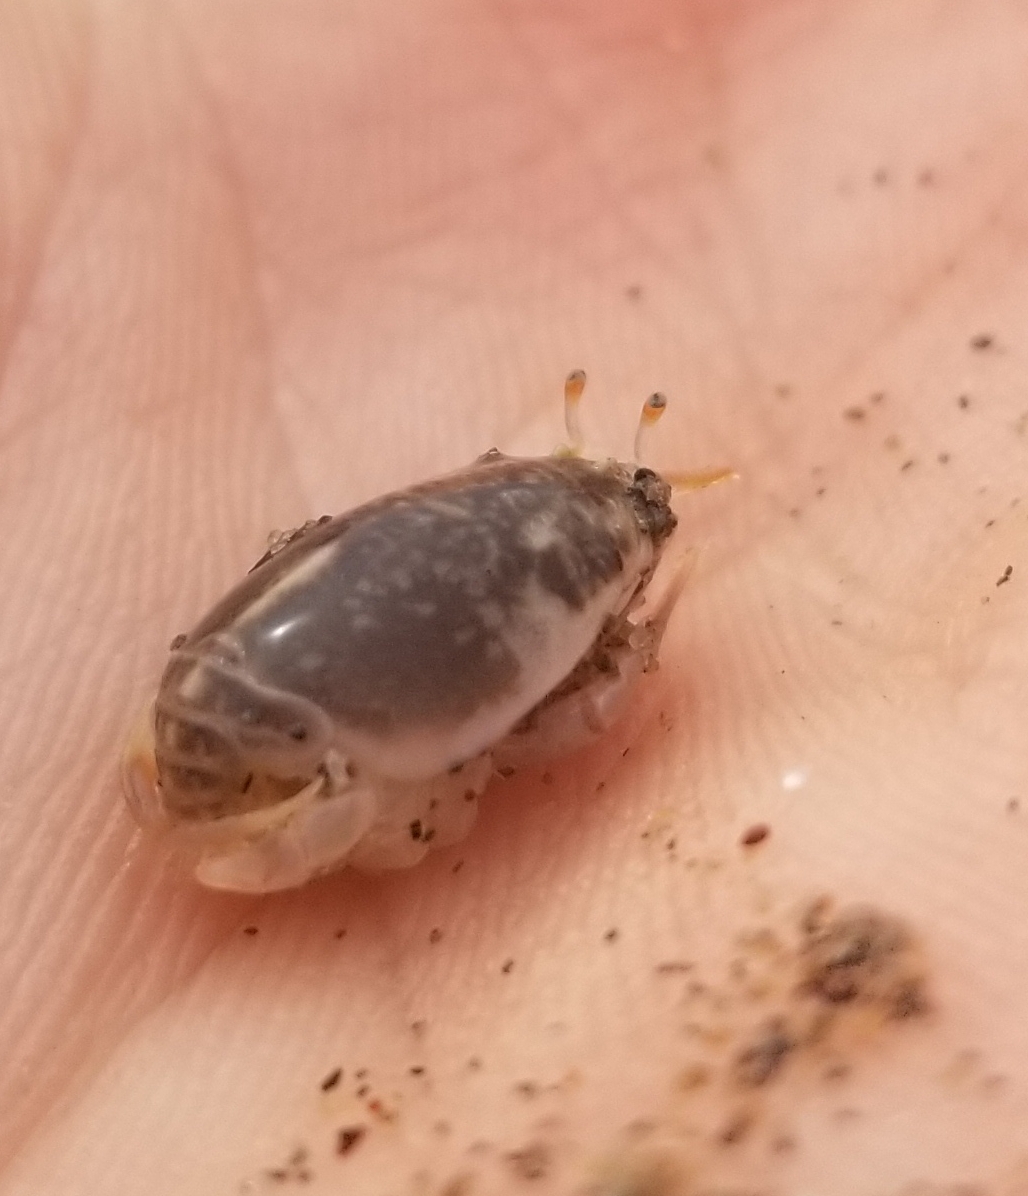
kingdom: Animalia
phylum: Arthropoda
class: Malacostraca
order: Decapoda
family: Hippidae
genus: Emerita
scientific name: Emerita analoga
